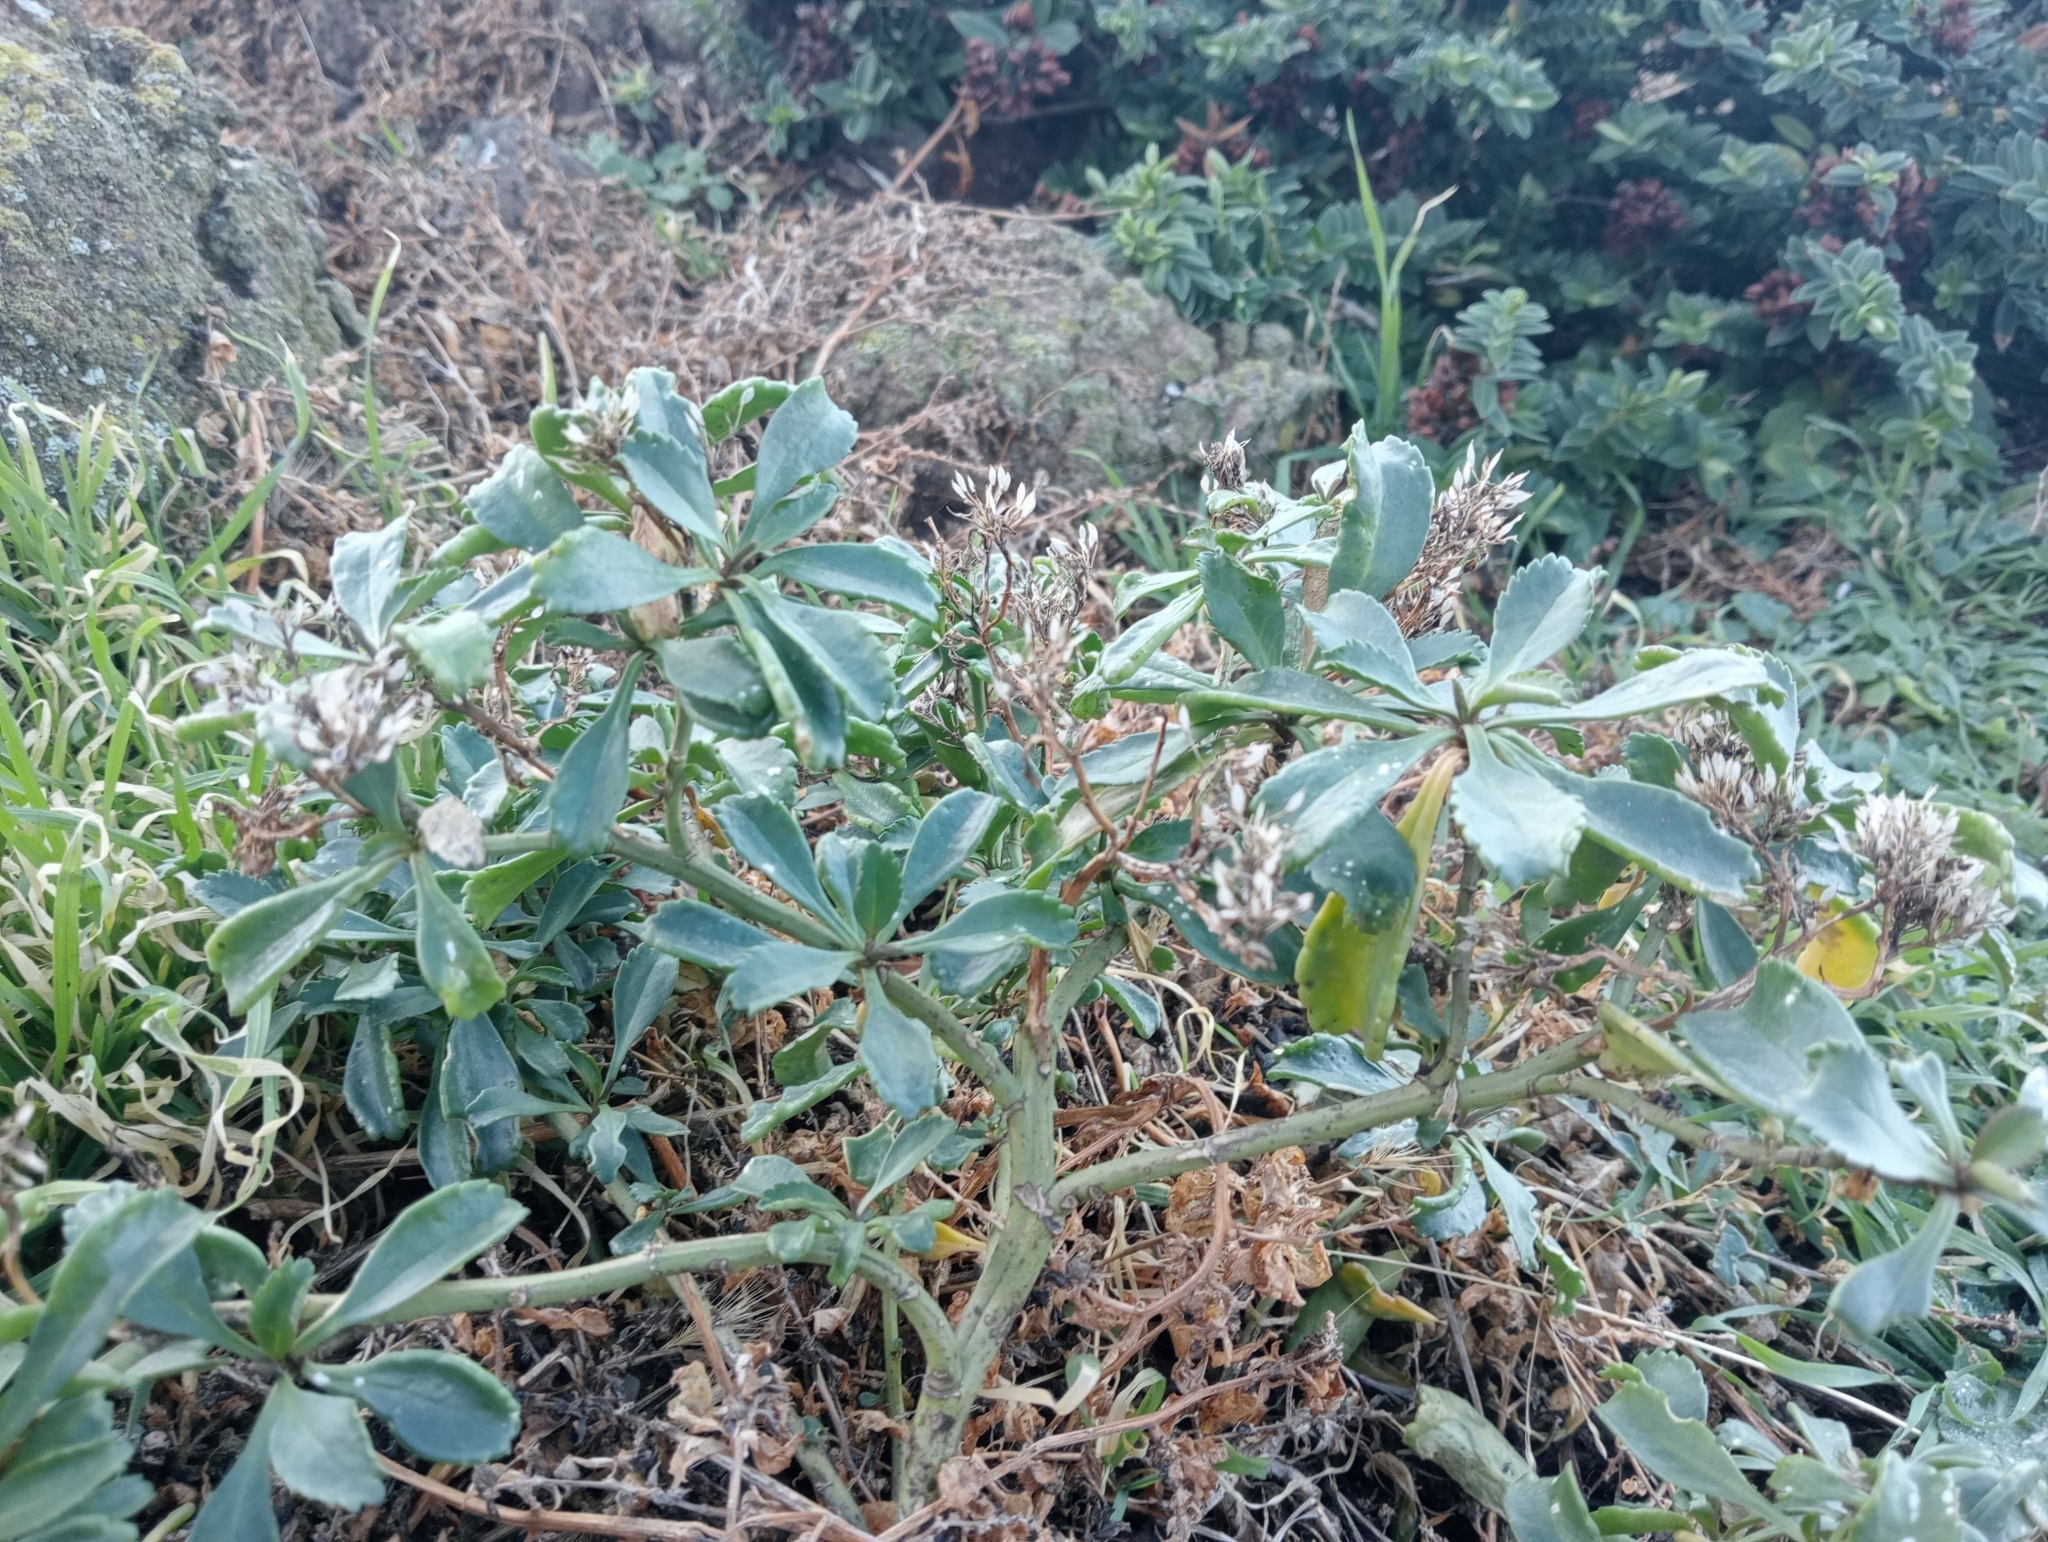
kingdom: Plantae
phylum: Tracheophyta
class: Magnoliopsida
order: Brassicales
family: Brassicaceae
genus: Lepidium
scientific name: Lepidium crassum
